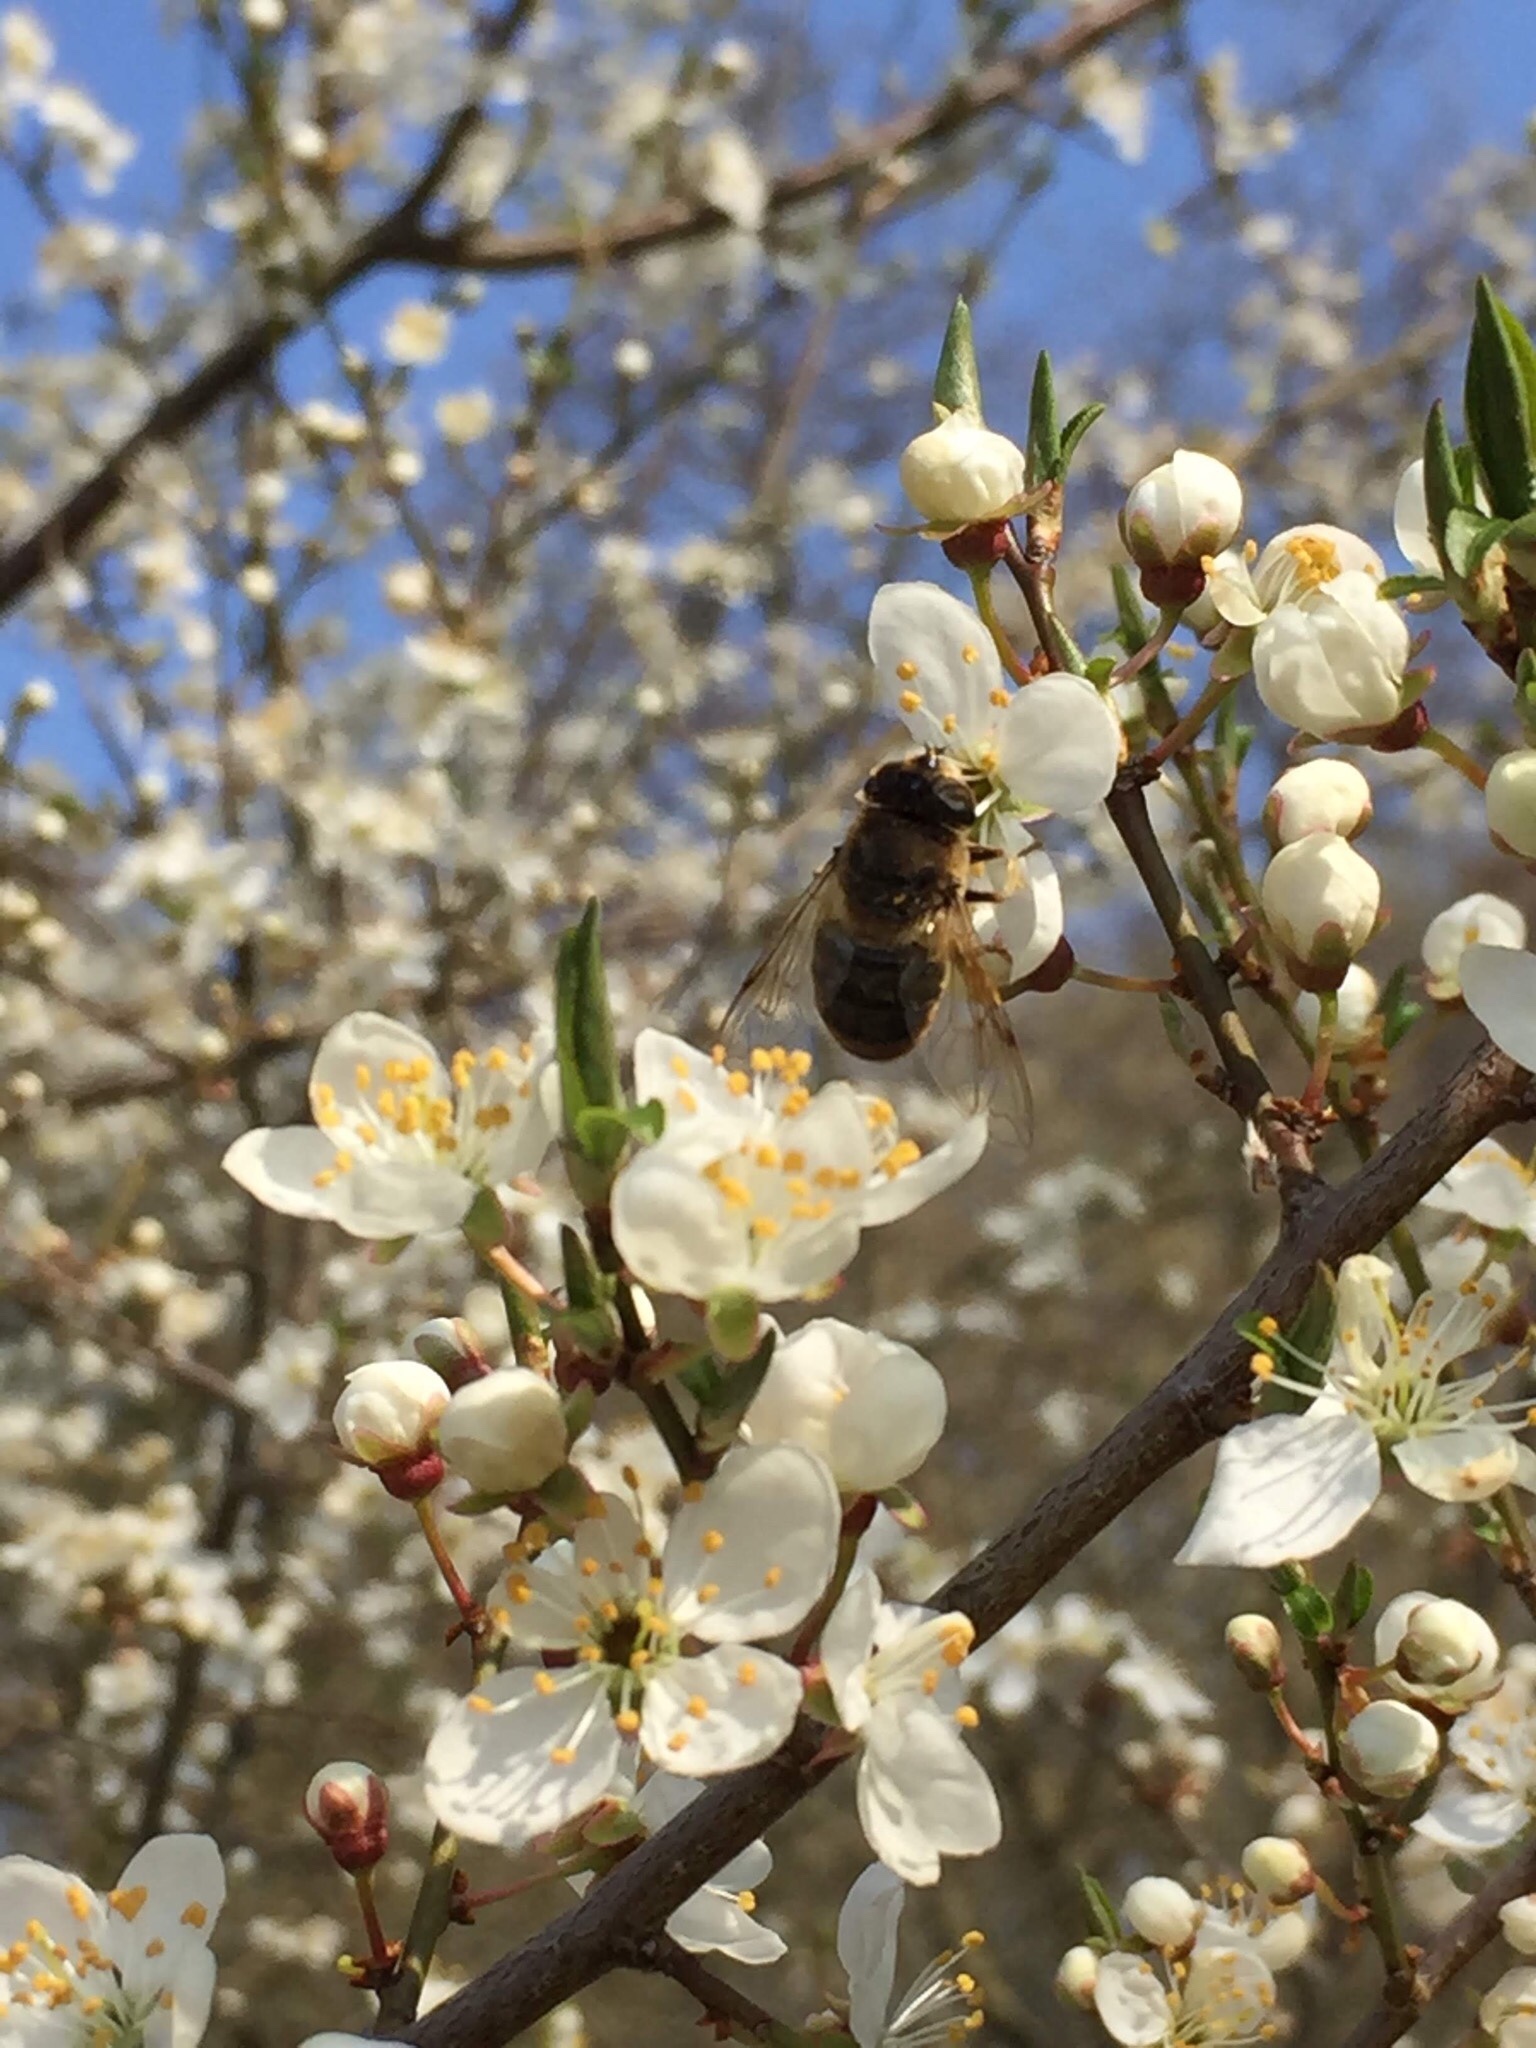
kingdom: Animalia
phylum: Arthropoda
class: Insecta
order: Diptera
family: Syrphidae
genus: Eristalis
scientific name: Eristalis tenax
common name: Drone fly
